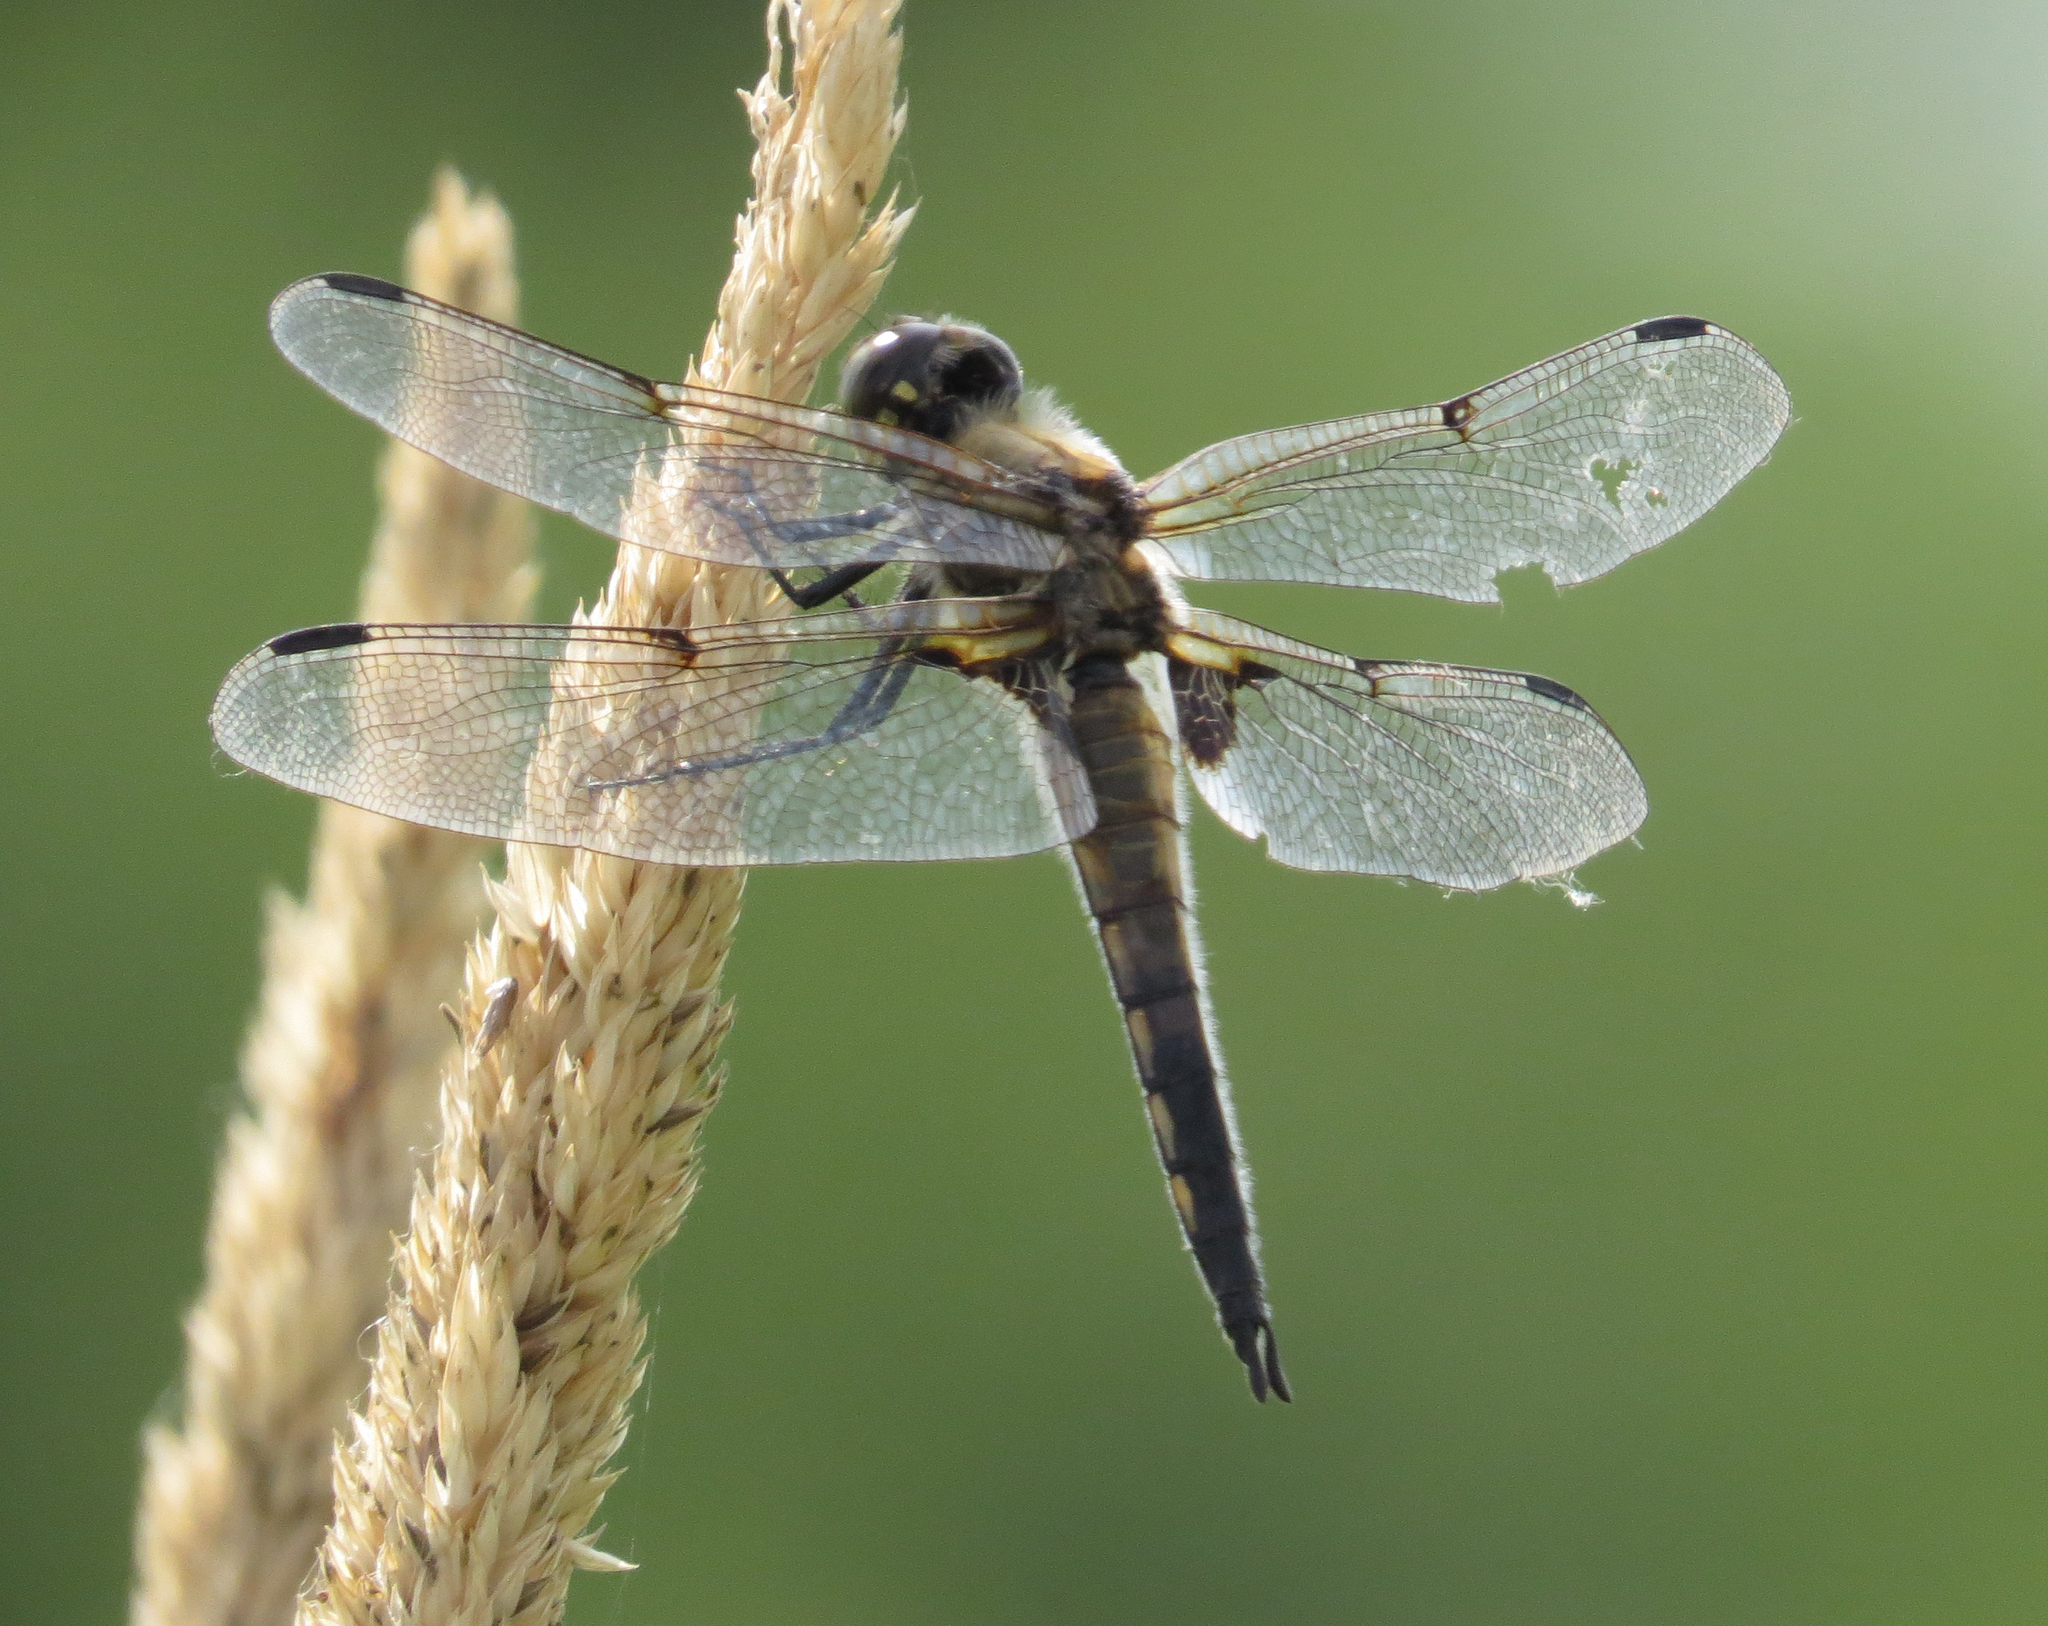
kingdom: Animalia
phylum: Arthropoda
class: Insecta
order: Odonata
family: Libellulidae
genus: Libellula
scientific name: Libellula quadrimaculata
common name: Four-spotted chaser
